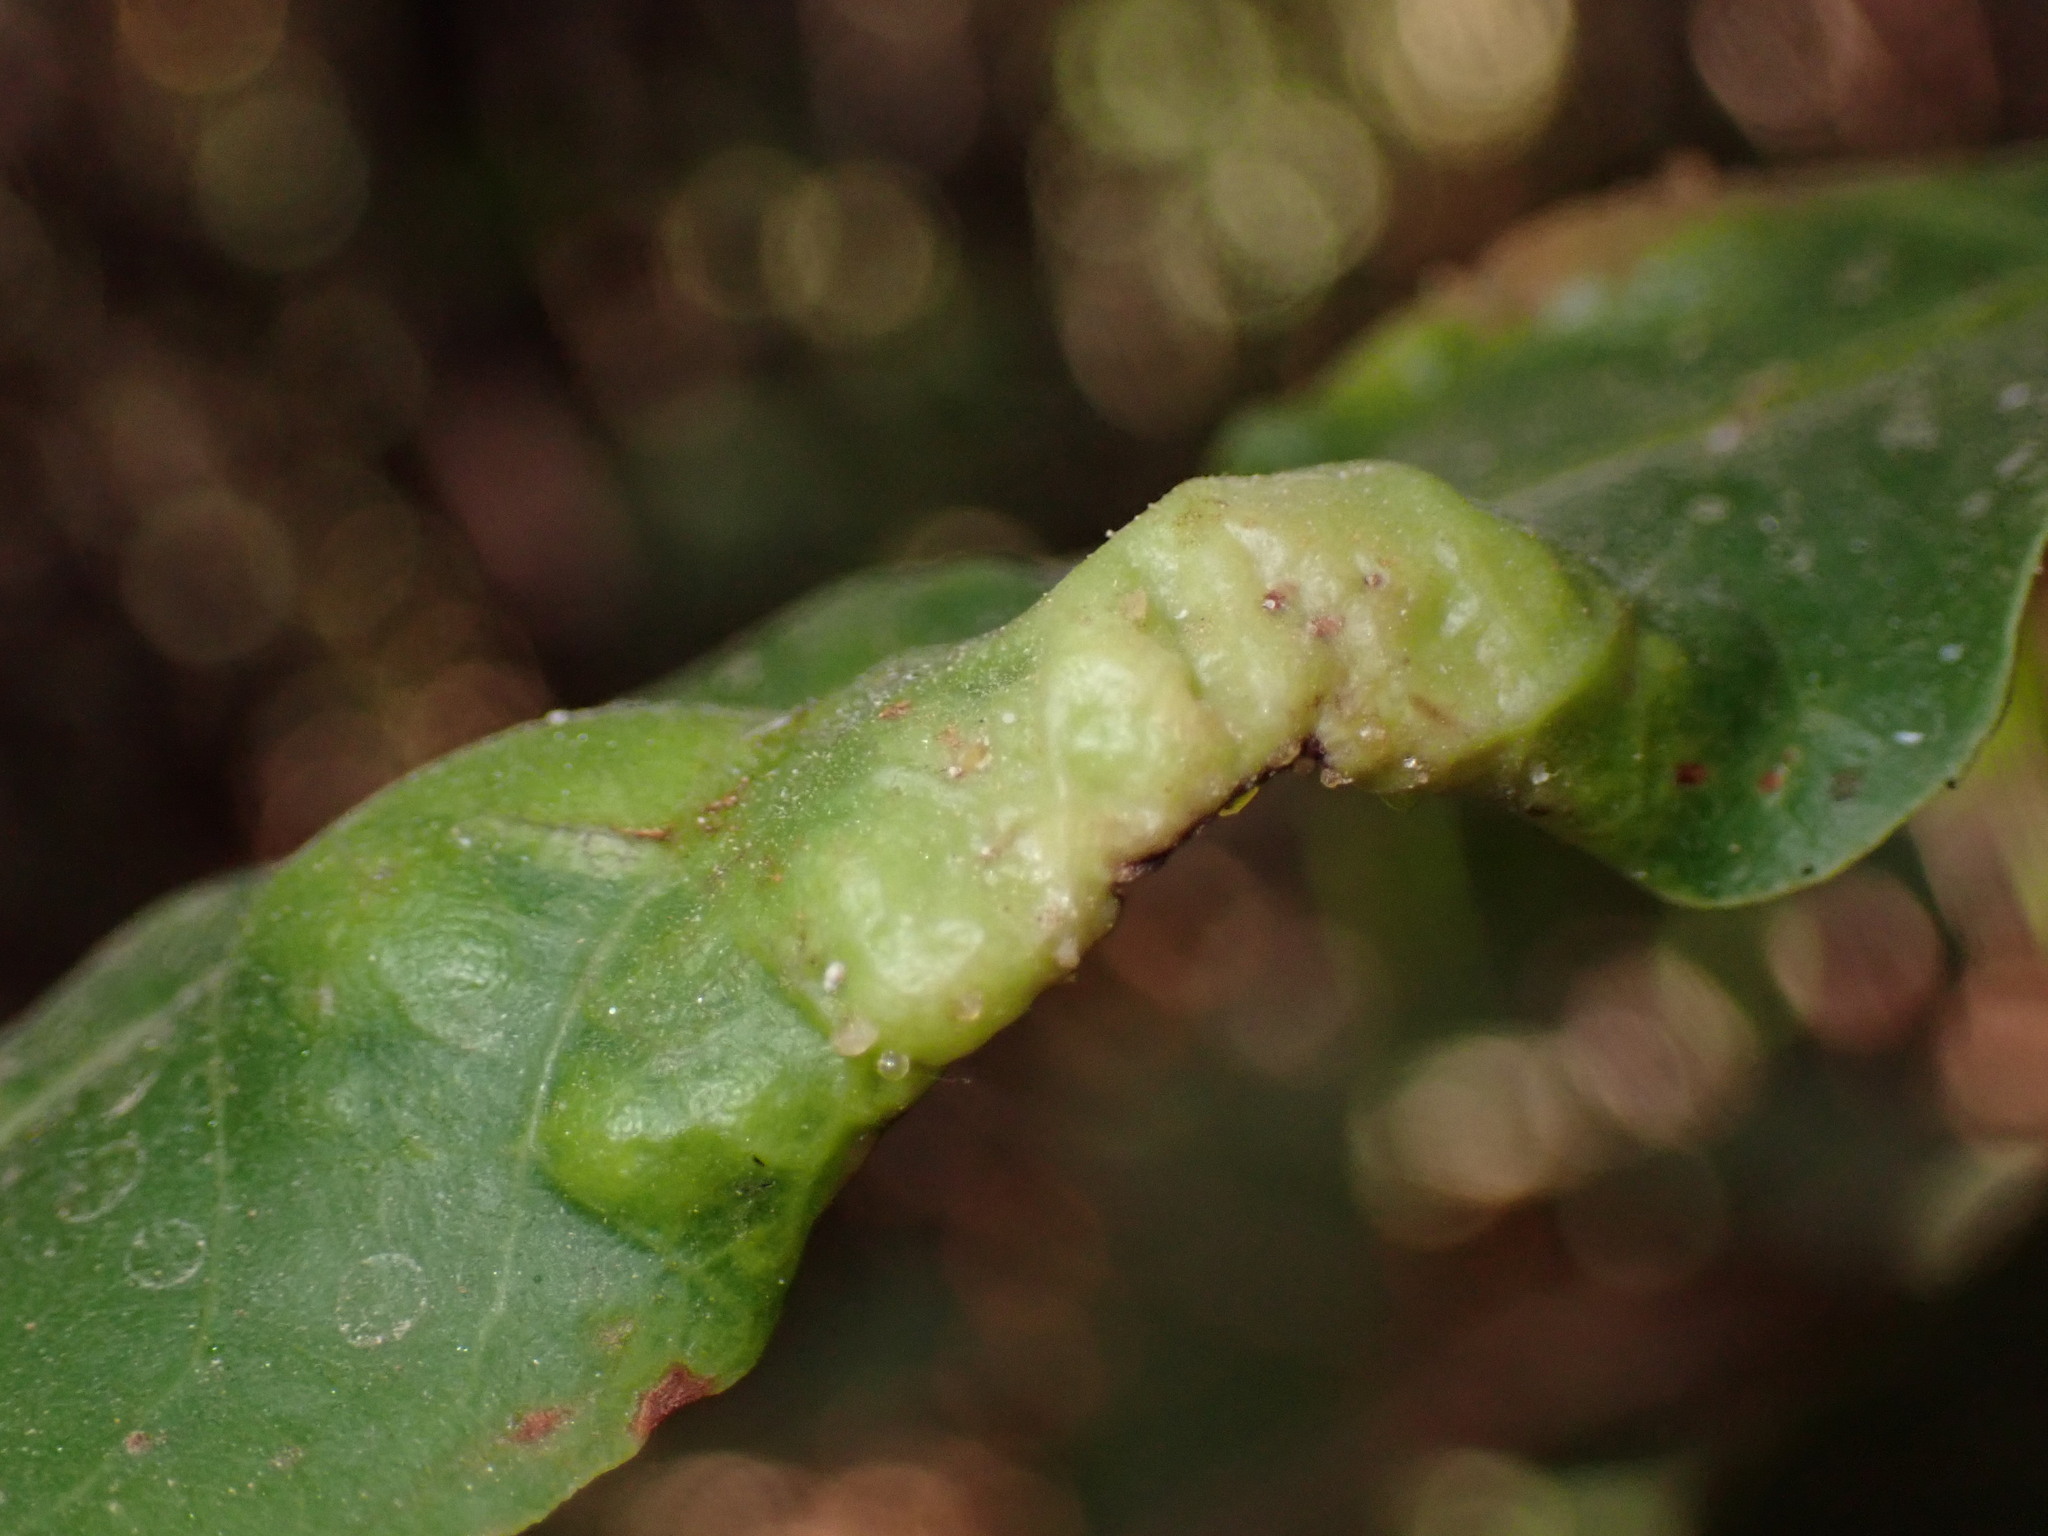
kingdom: Animalia
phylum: Arthropoda
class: Insecta
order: Hemiptera
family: Triozidae
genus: Lauritrioza
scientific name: Lauritrioza alacris
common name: Laurel psyllid
